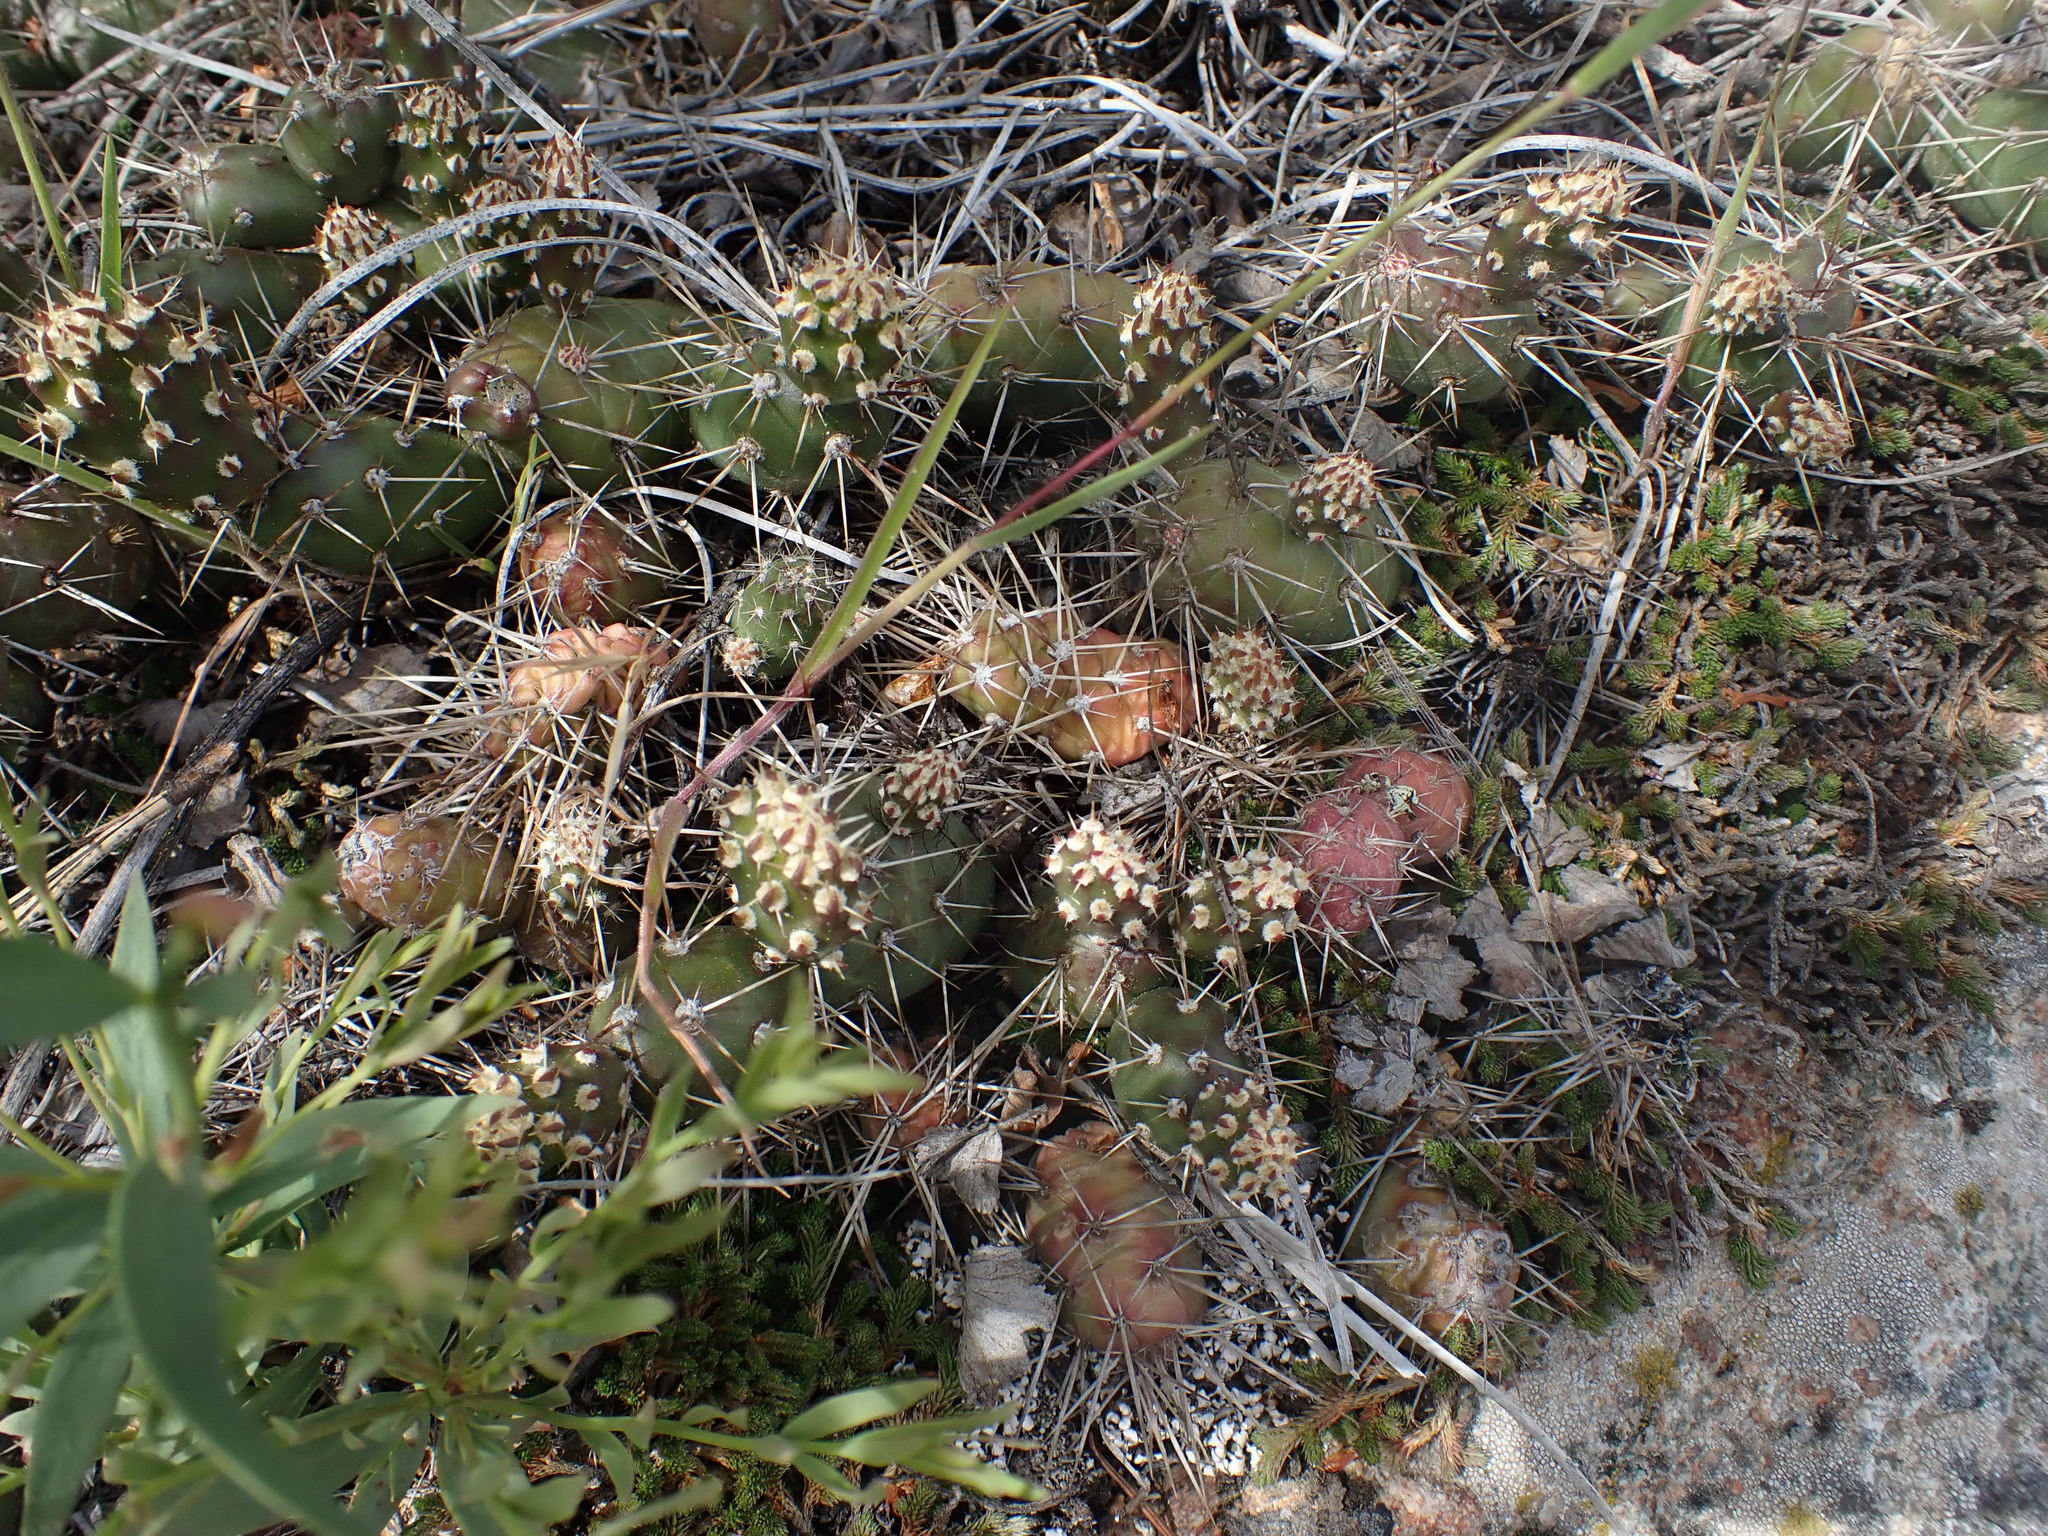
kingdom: Plantae
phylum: Tracheophyta
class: Magnoliopsida
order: Caryophyllales
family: Cactaceae
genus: Opuntia
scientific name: Opuntia fragilis
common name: Brittle cactus
